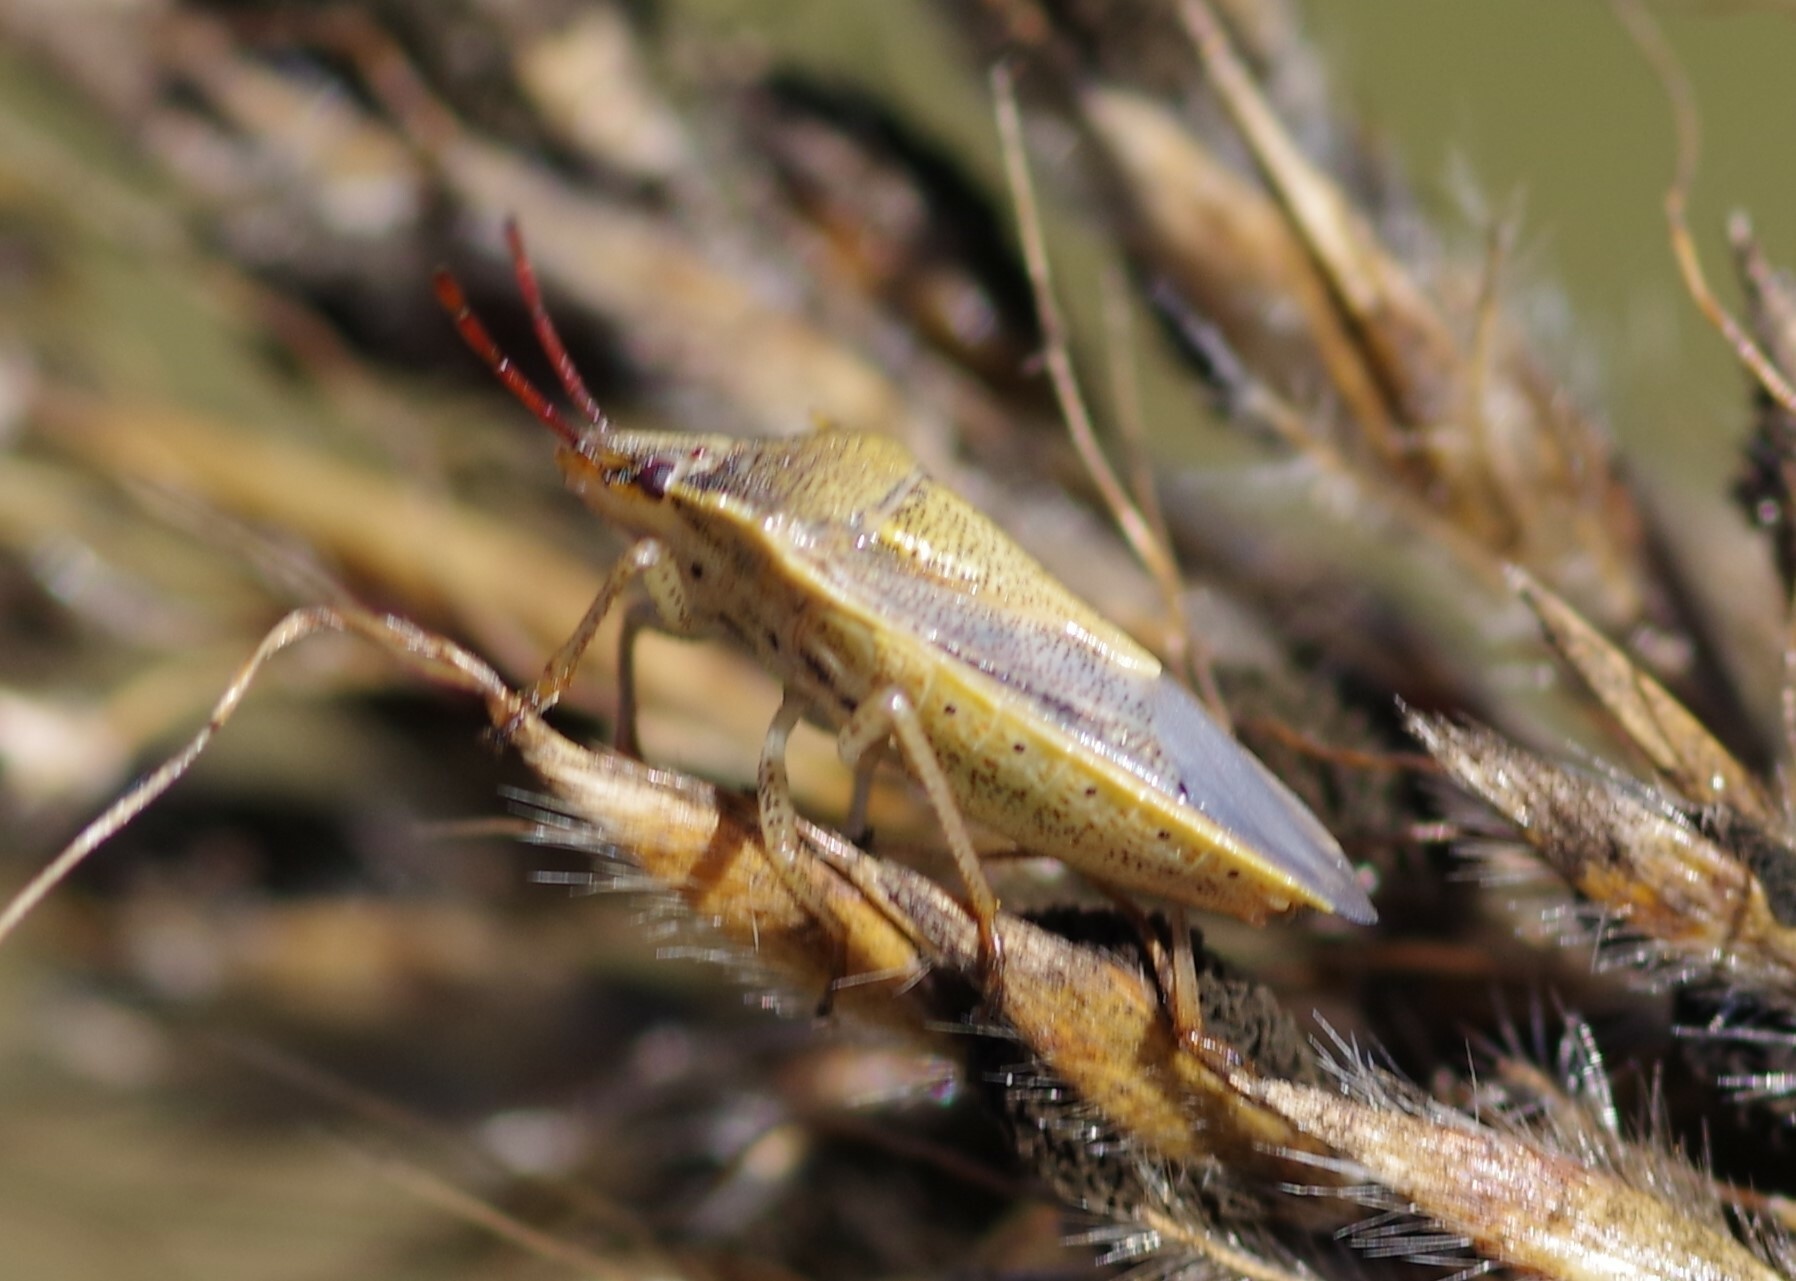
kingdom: Animalia
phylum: Arthropoda
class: Insecta
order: Hemiptera
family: Pentatomidae
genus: Oebalus
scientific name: Oebalus pugnax
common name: Rice stink bug
